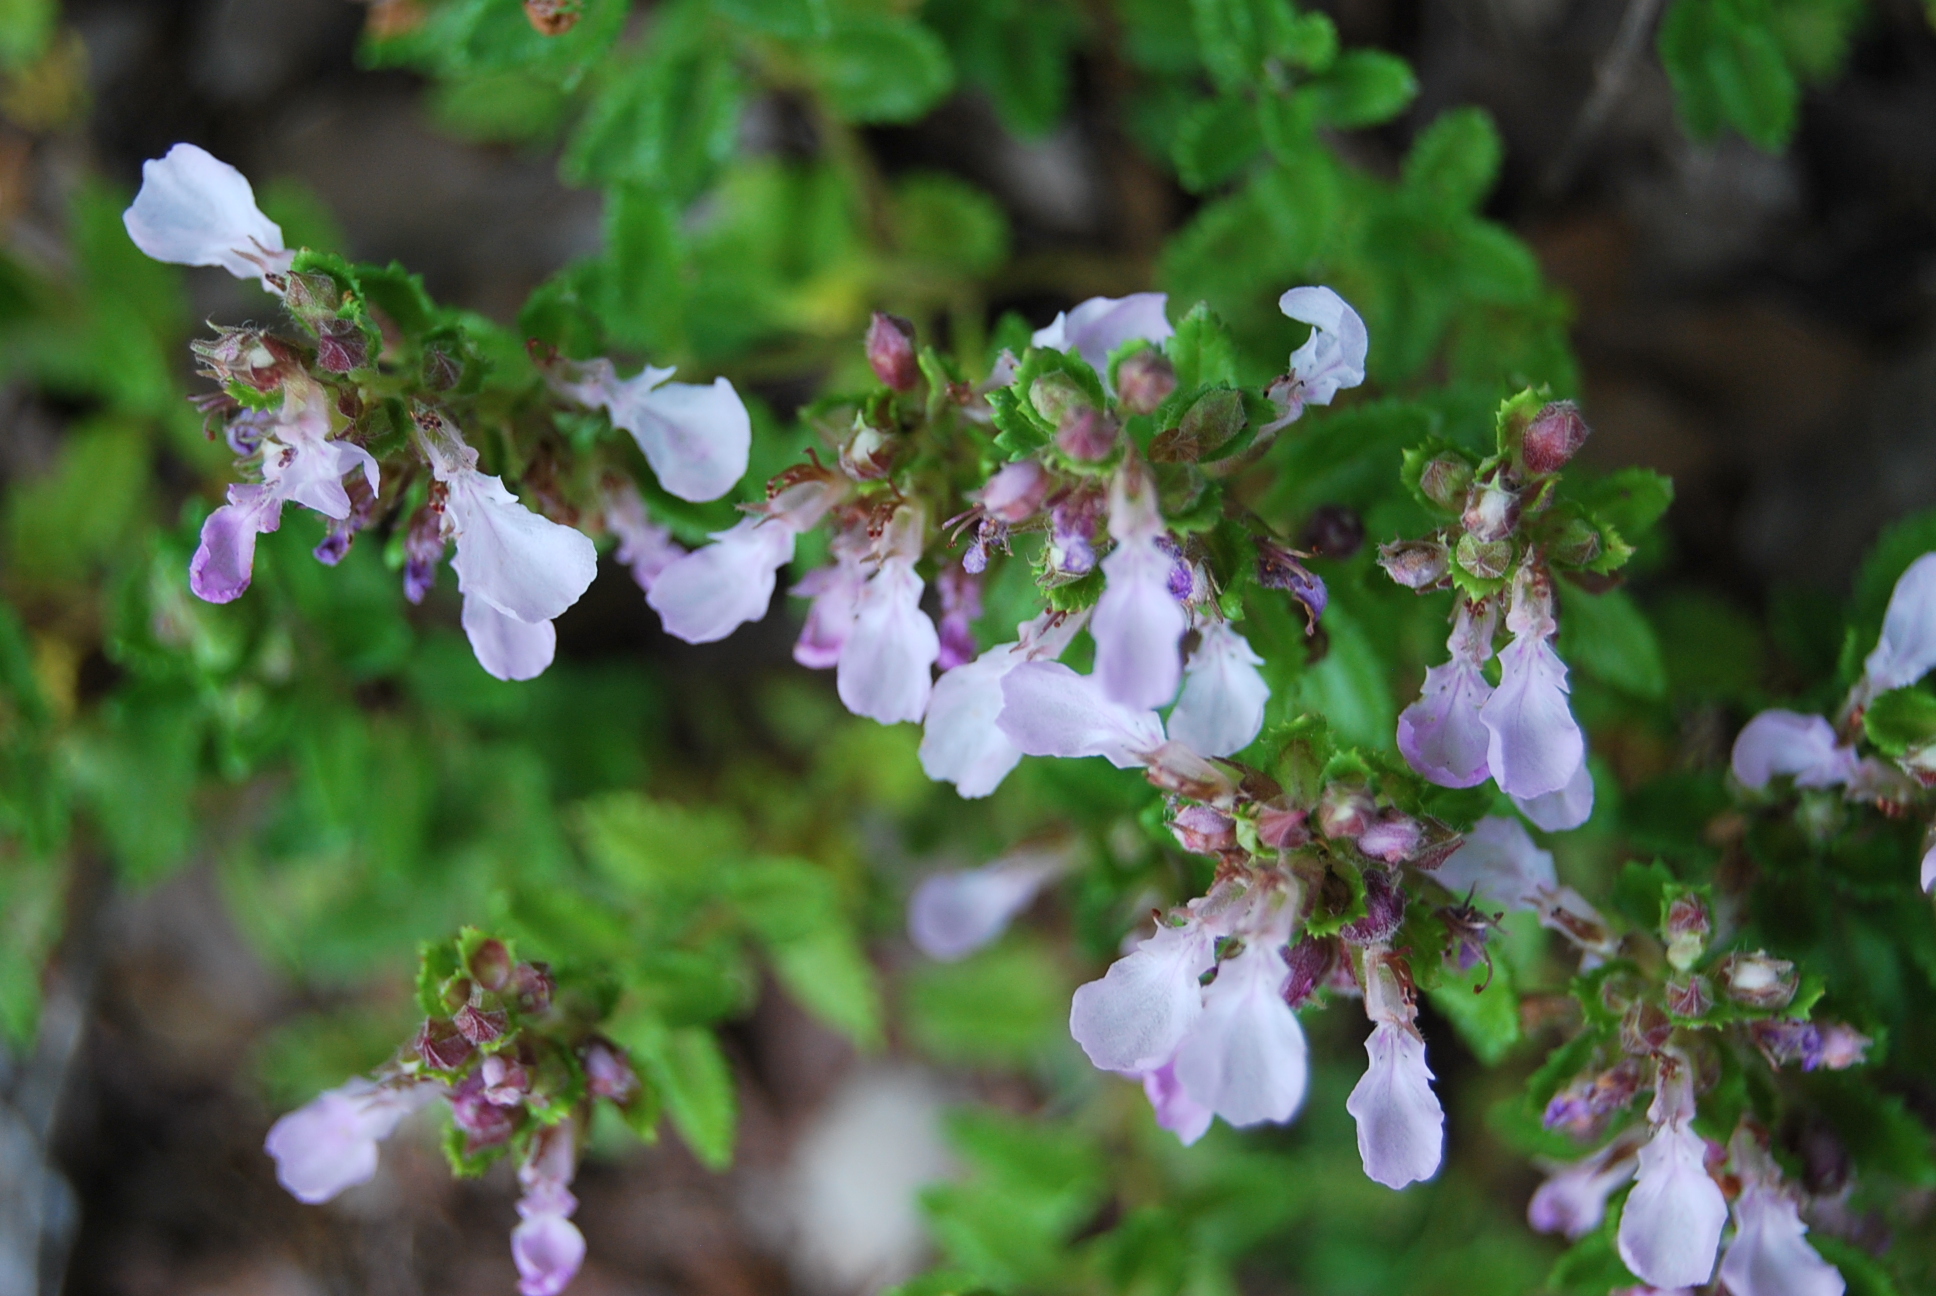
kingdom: Plantae
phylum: Tracheophyta
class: Magnoliopsida
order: Lamiales
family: Lamiaceae
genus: Teucrium
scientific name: Teucrium chamaedrys
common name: Wall germander
